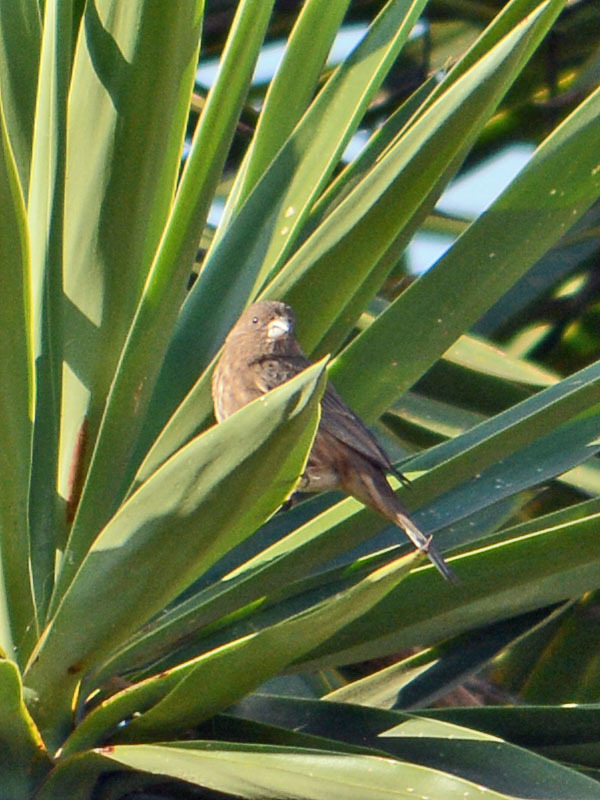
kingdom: Animalia
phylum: Chordata
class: Aves
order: Passeriformes
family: Fringillidae
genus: Haemorhous
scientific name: Haemorhous mexicanus
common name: House finch
